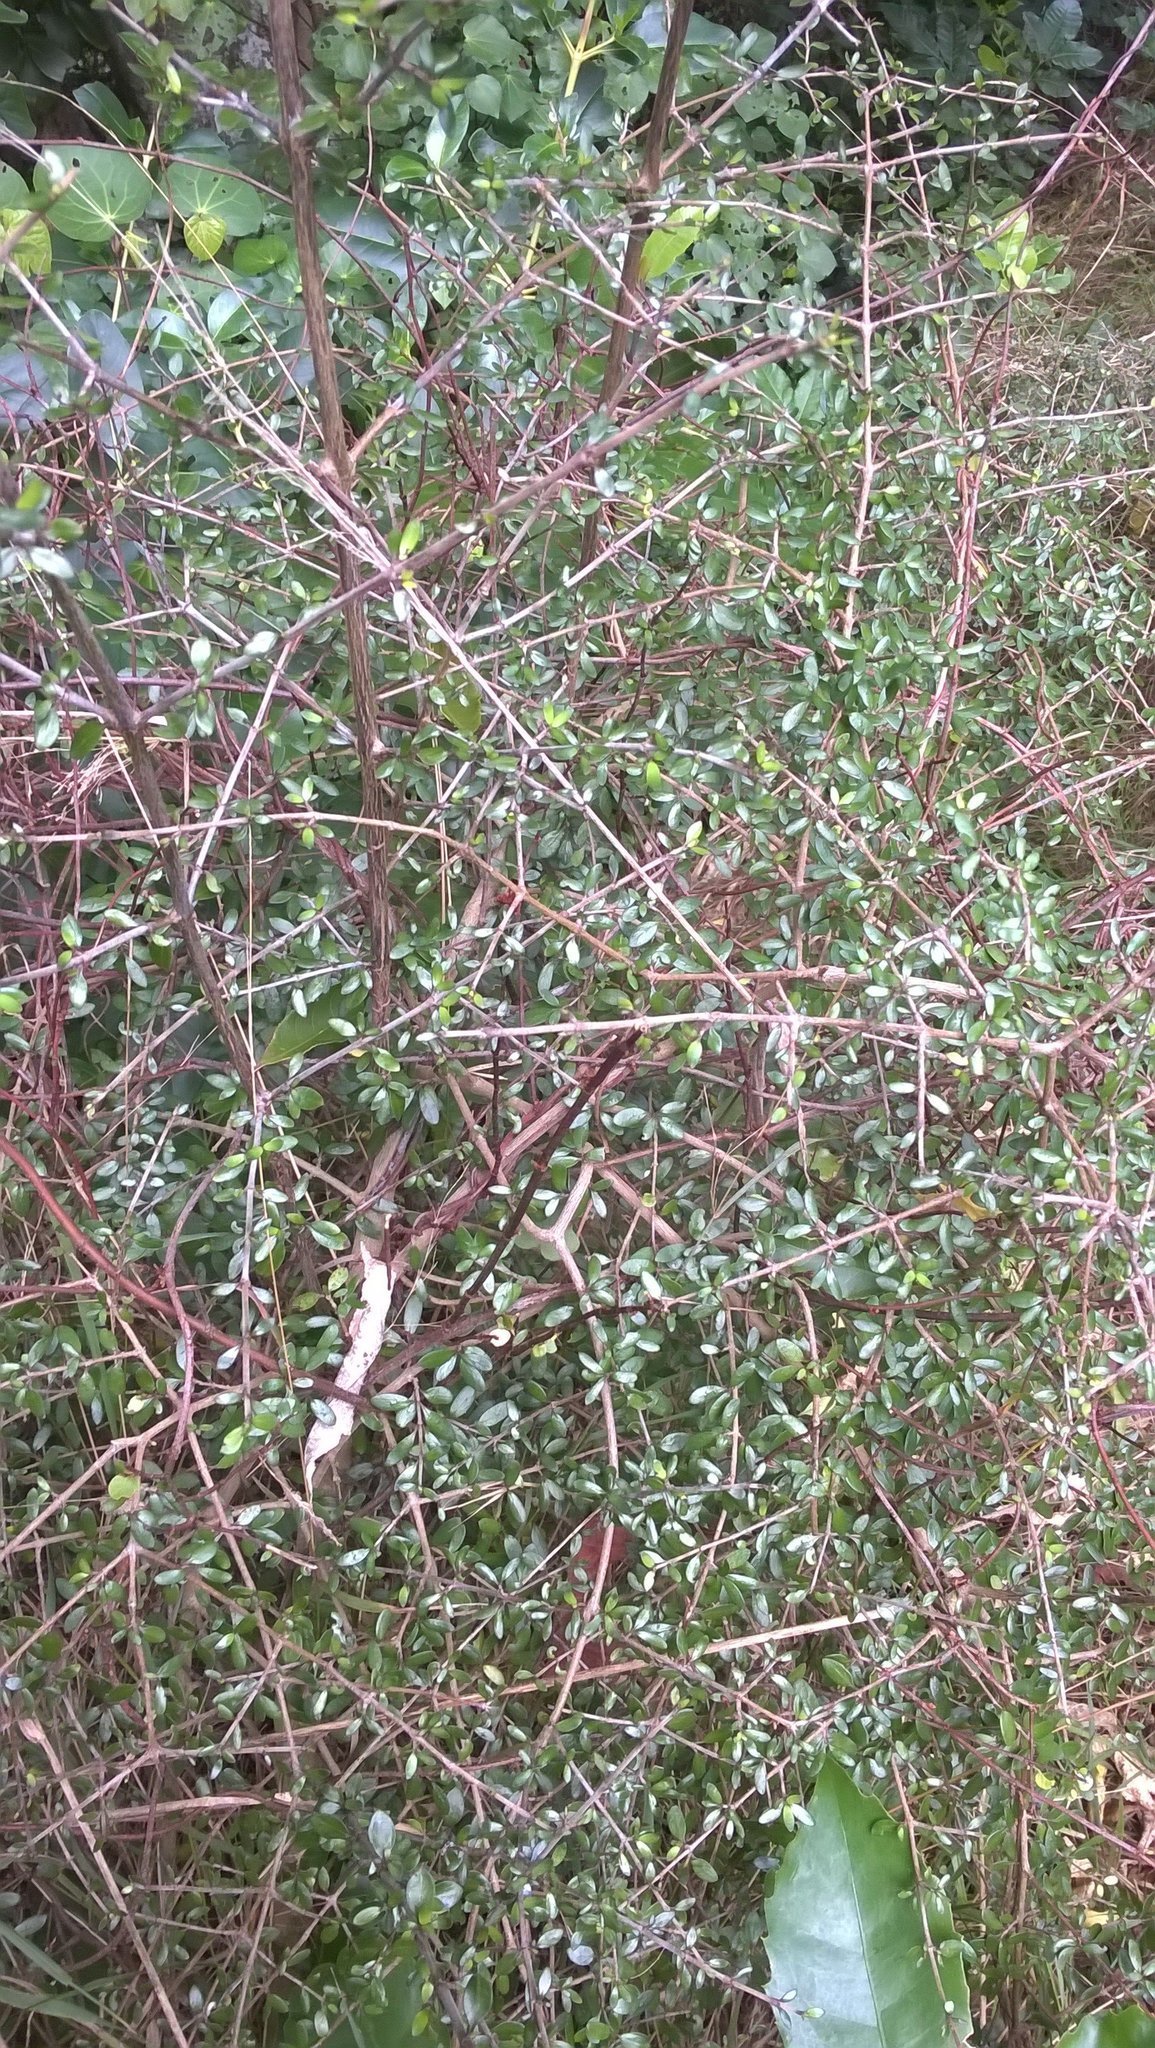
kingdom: Plantae
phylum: Tracheophyta
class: Magnoliopsida
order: Gentianales
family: Rubiaceae
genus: Coprosma
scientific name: Coprosma propinqua
